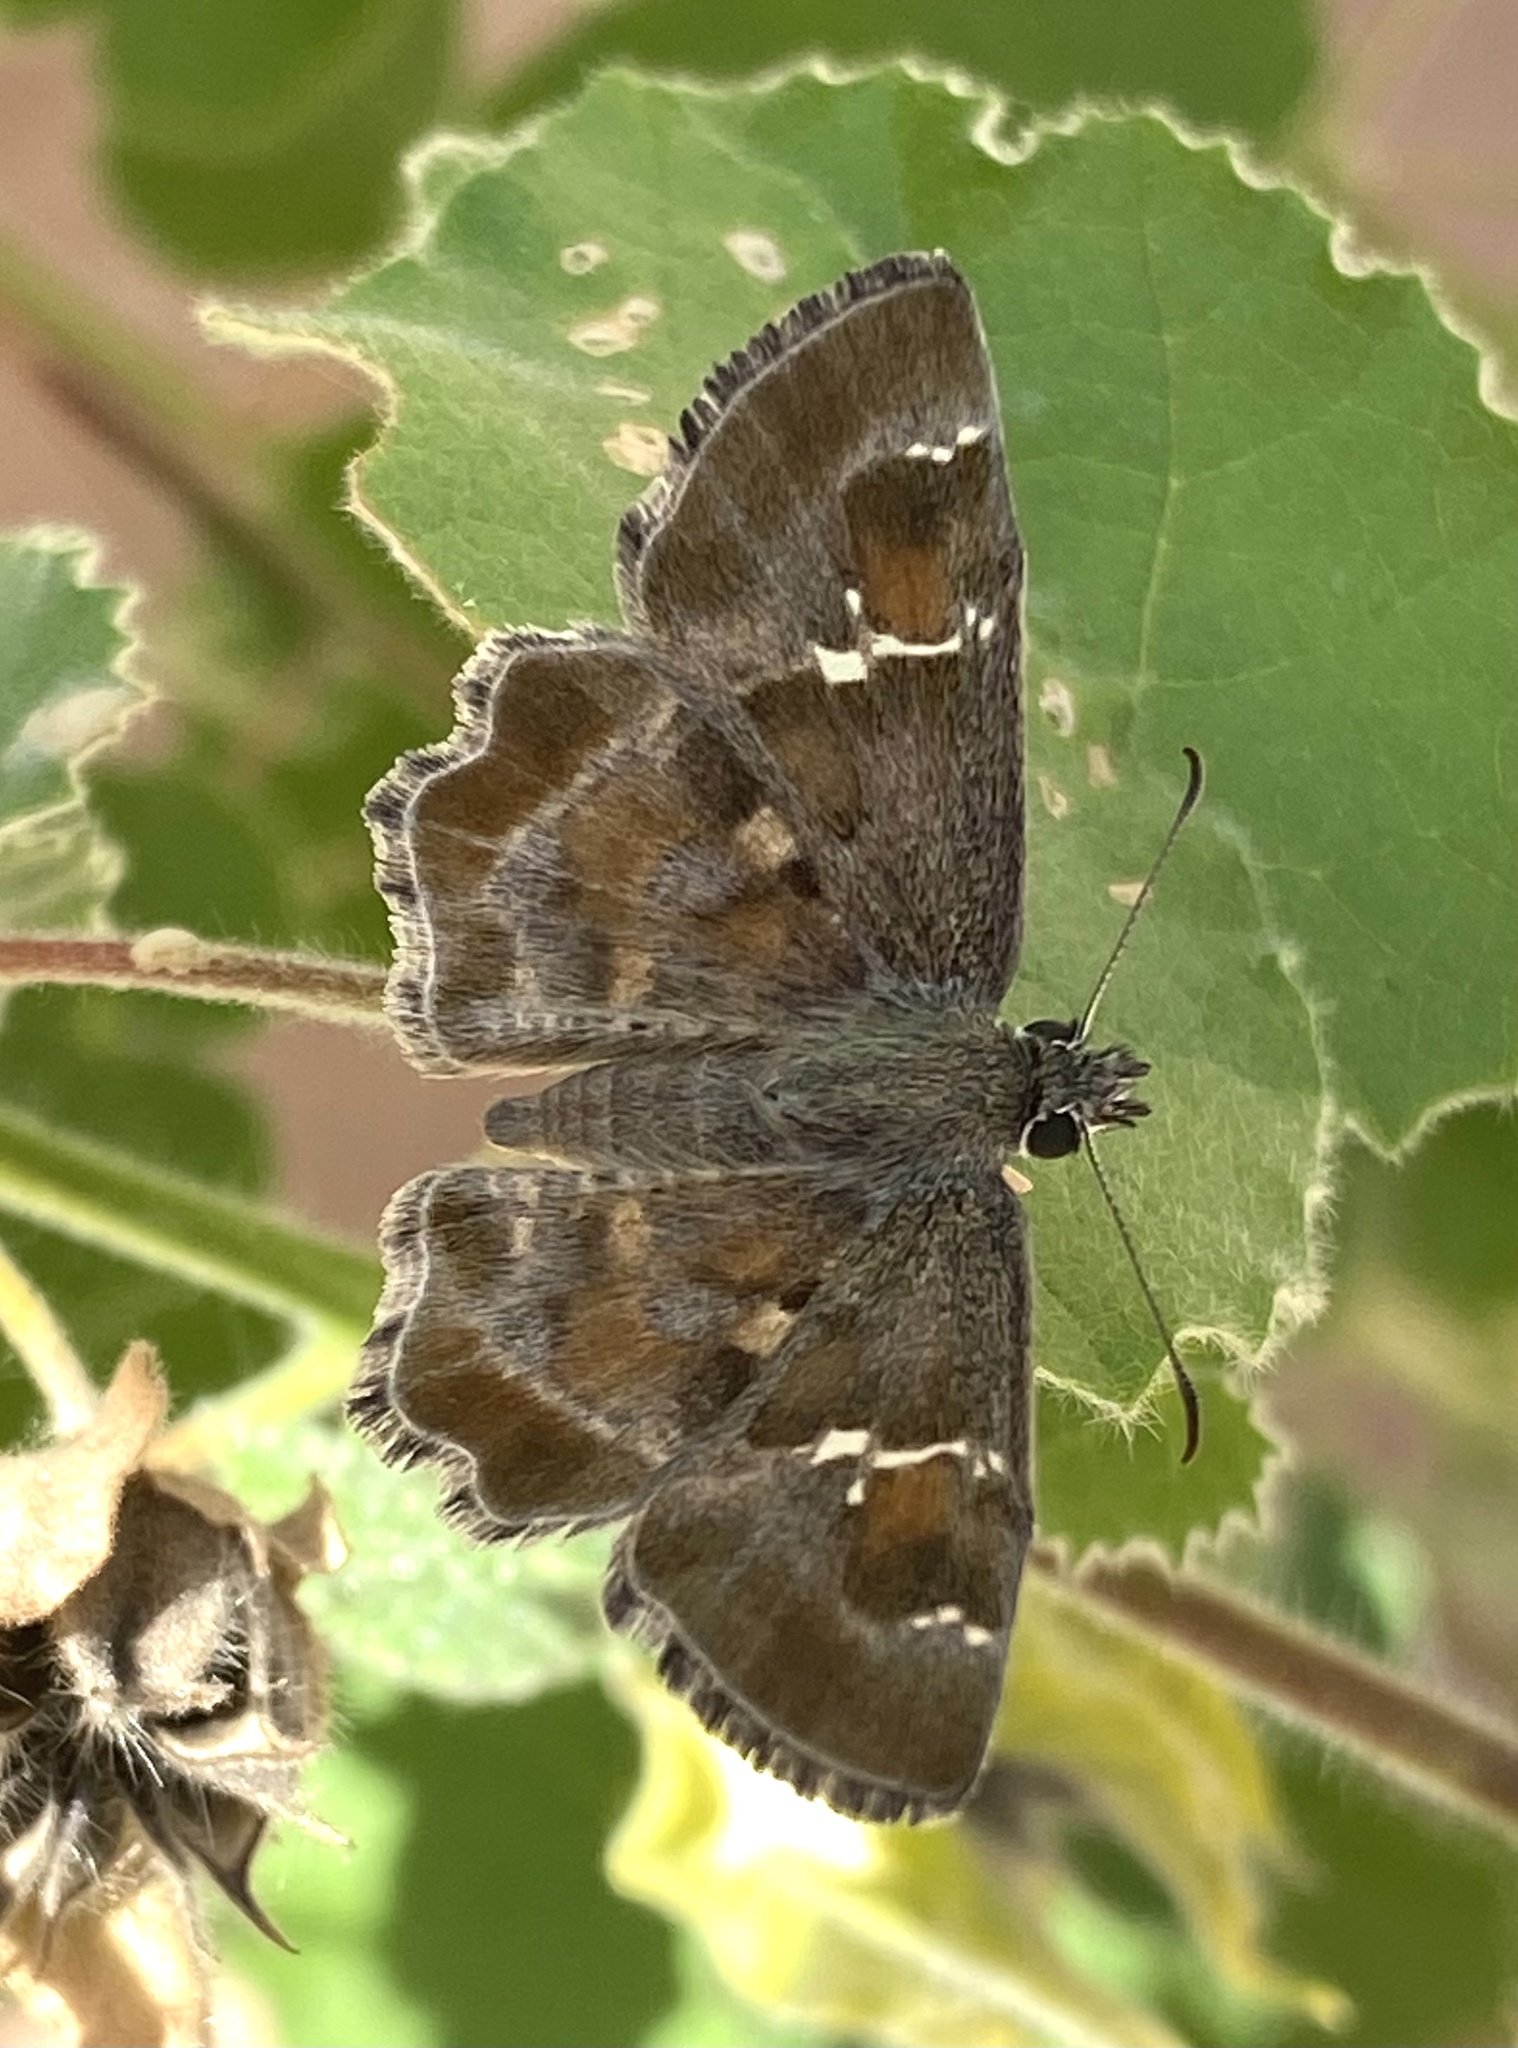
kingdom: Animalia
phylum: Arthropoda
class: Insecta
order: Lepidoptera
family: Hesperiidae
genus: Systasea
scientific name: Systasea zampa
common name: Arizona powdered-skipper
